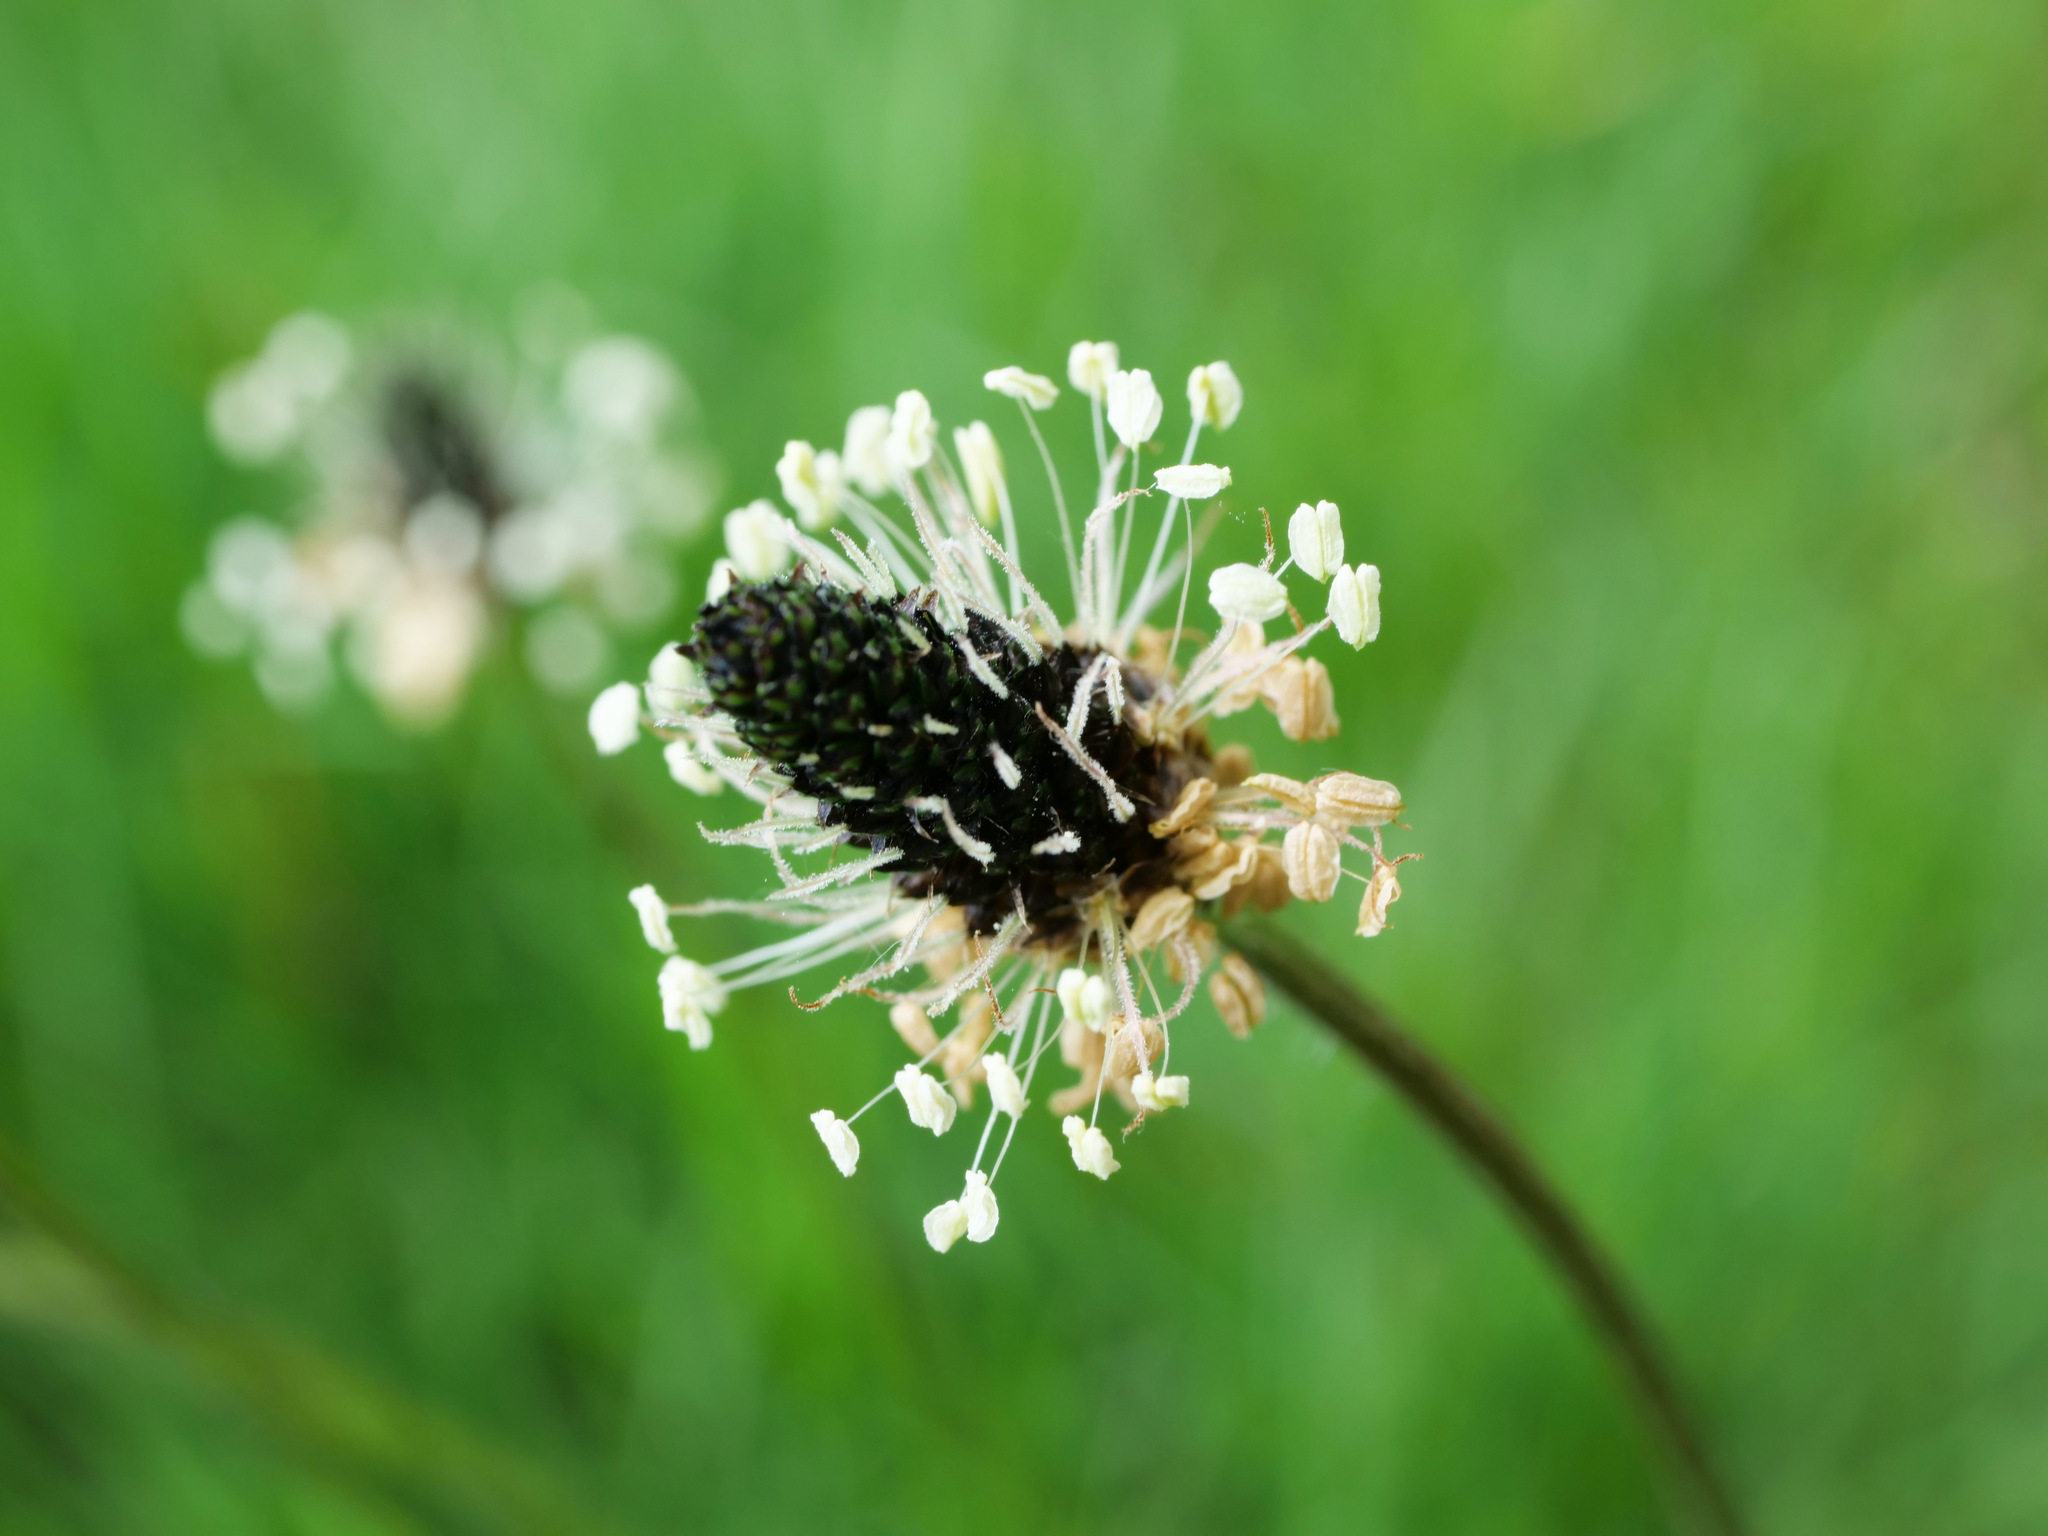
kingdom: Plantae
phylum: Tracheophyta
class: Magnoliopsida
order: Lamiales
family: Plantaginaceae
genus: Plantago
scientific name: Plantago lanceolata
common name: Ribwort plantain
